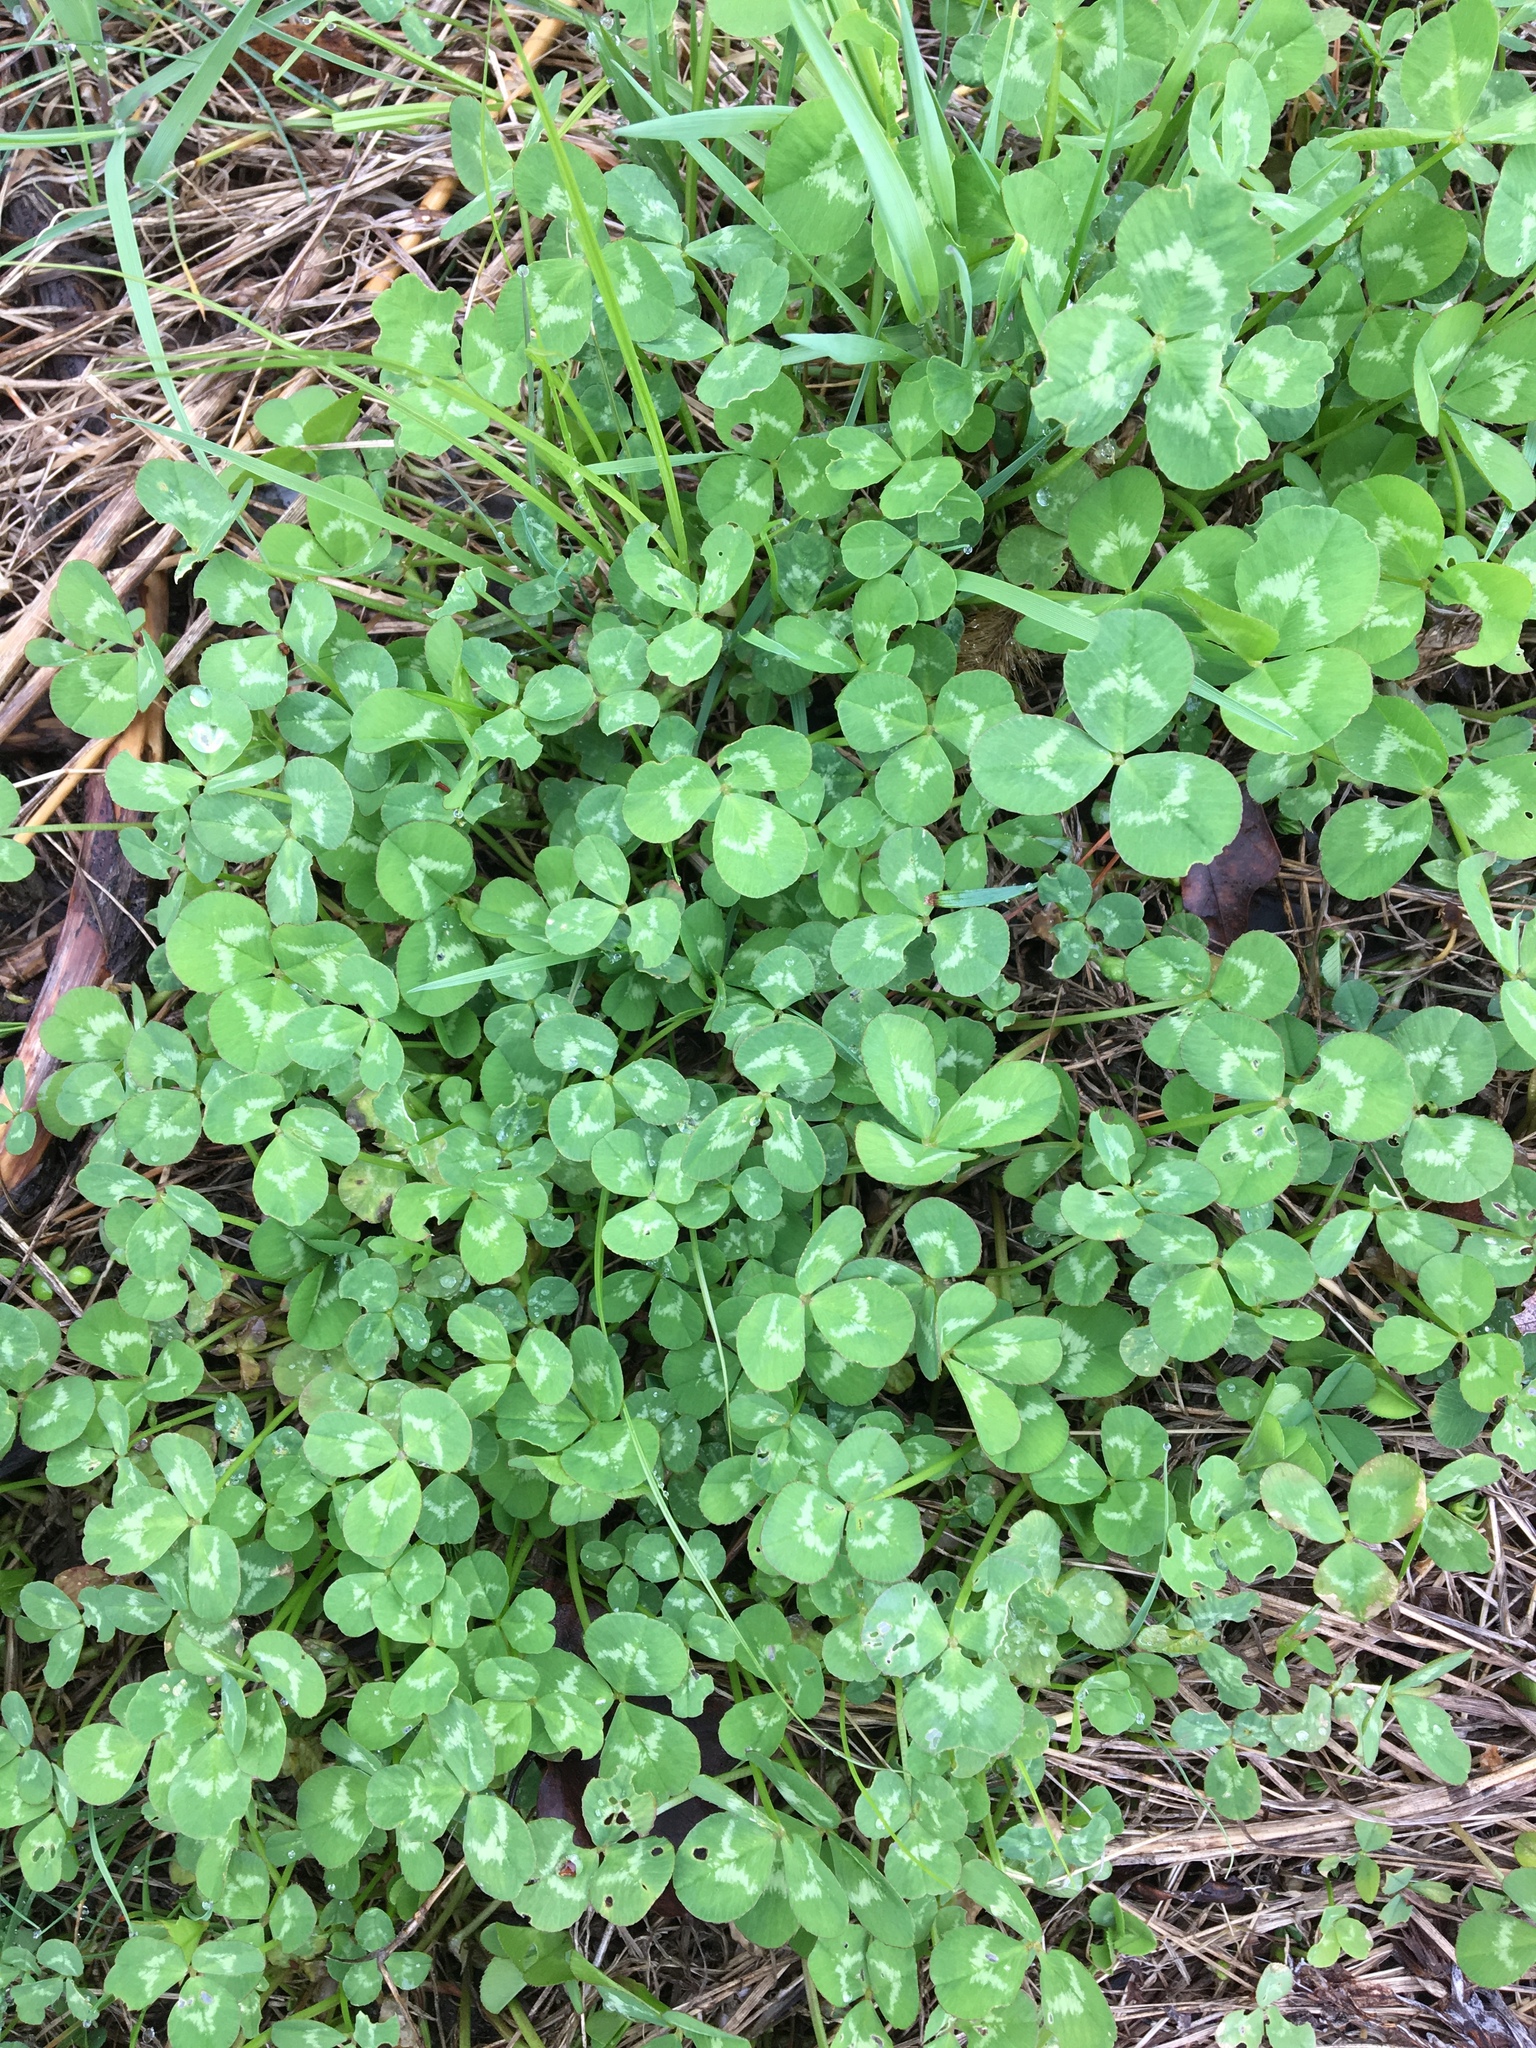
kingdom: Plantae
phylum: Tracheophyta
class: Magnoliopsida
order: Fabales
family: Fabaceae
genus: Trifolium
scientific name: Trifolium repens
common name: White clover
